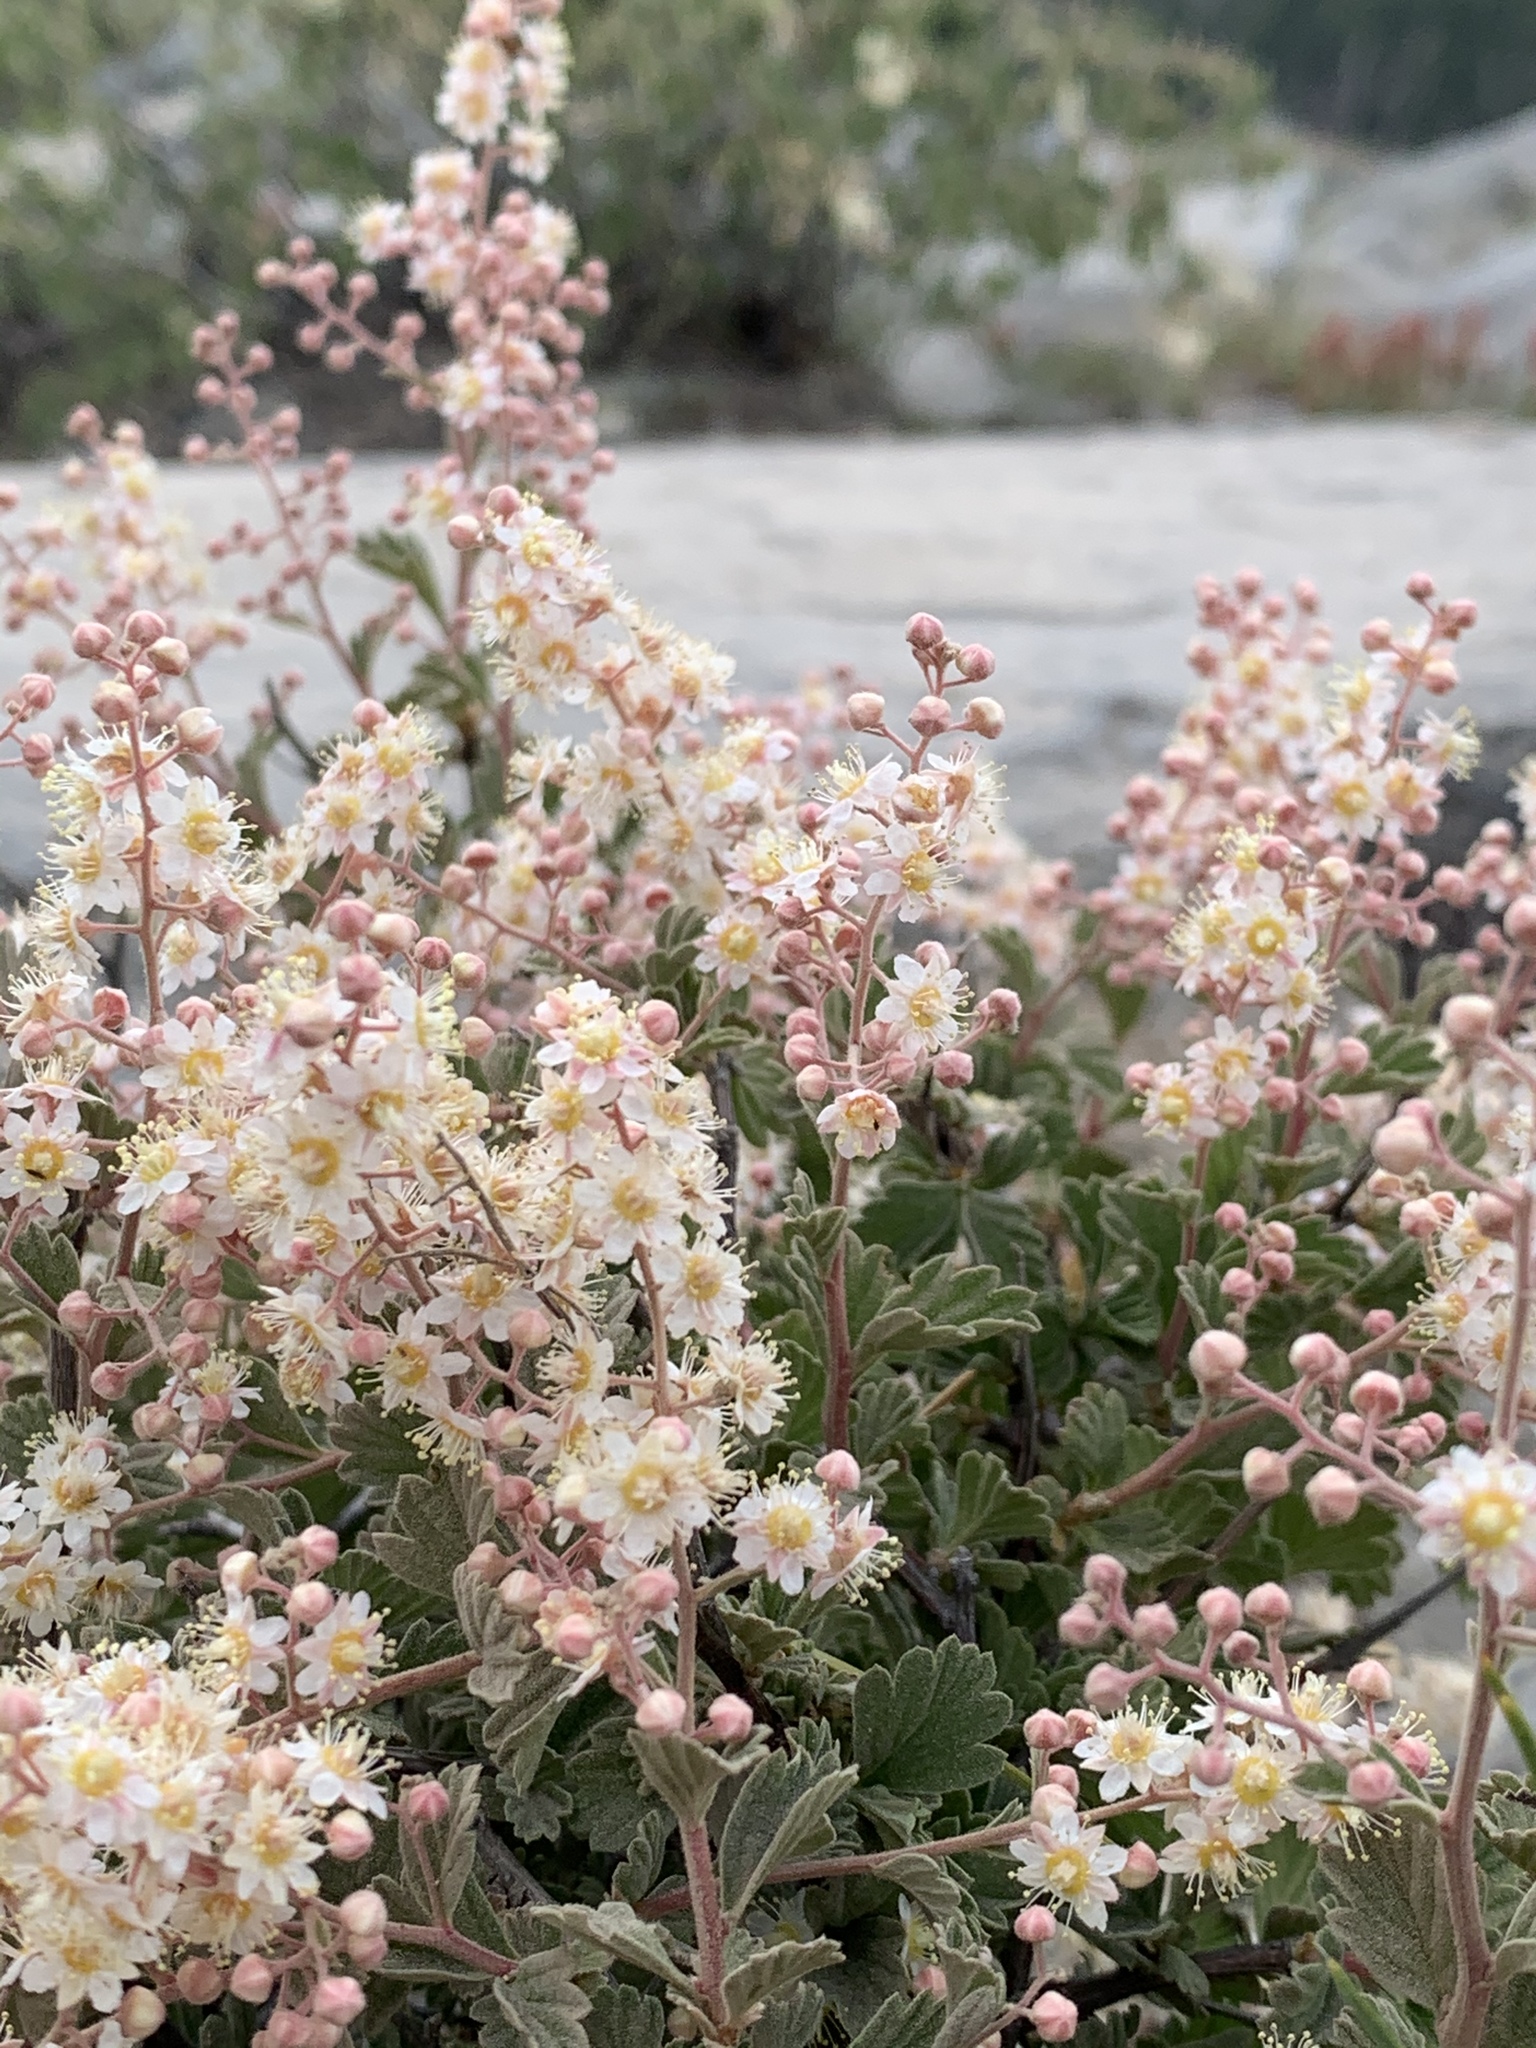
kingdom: Plantae
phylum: Tracheophyta
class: Magnoliopsida
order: Rosales
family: Rosaceae
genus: Holodiscus
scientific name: Holodiscus discolor
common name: Oceanspray
